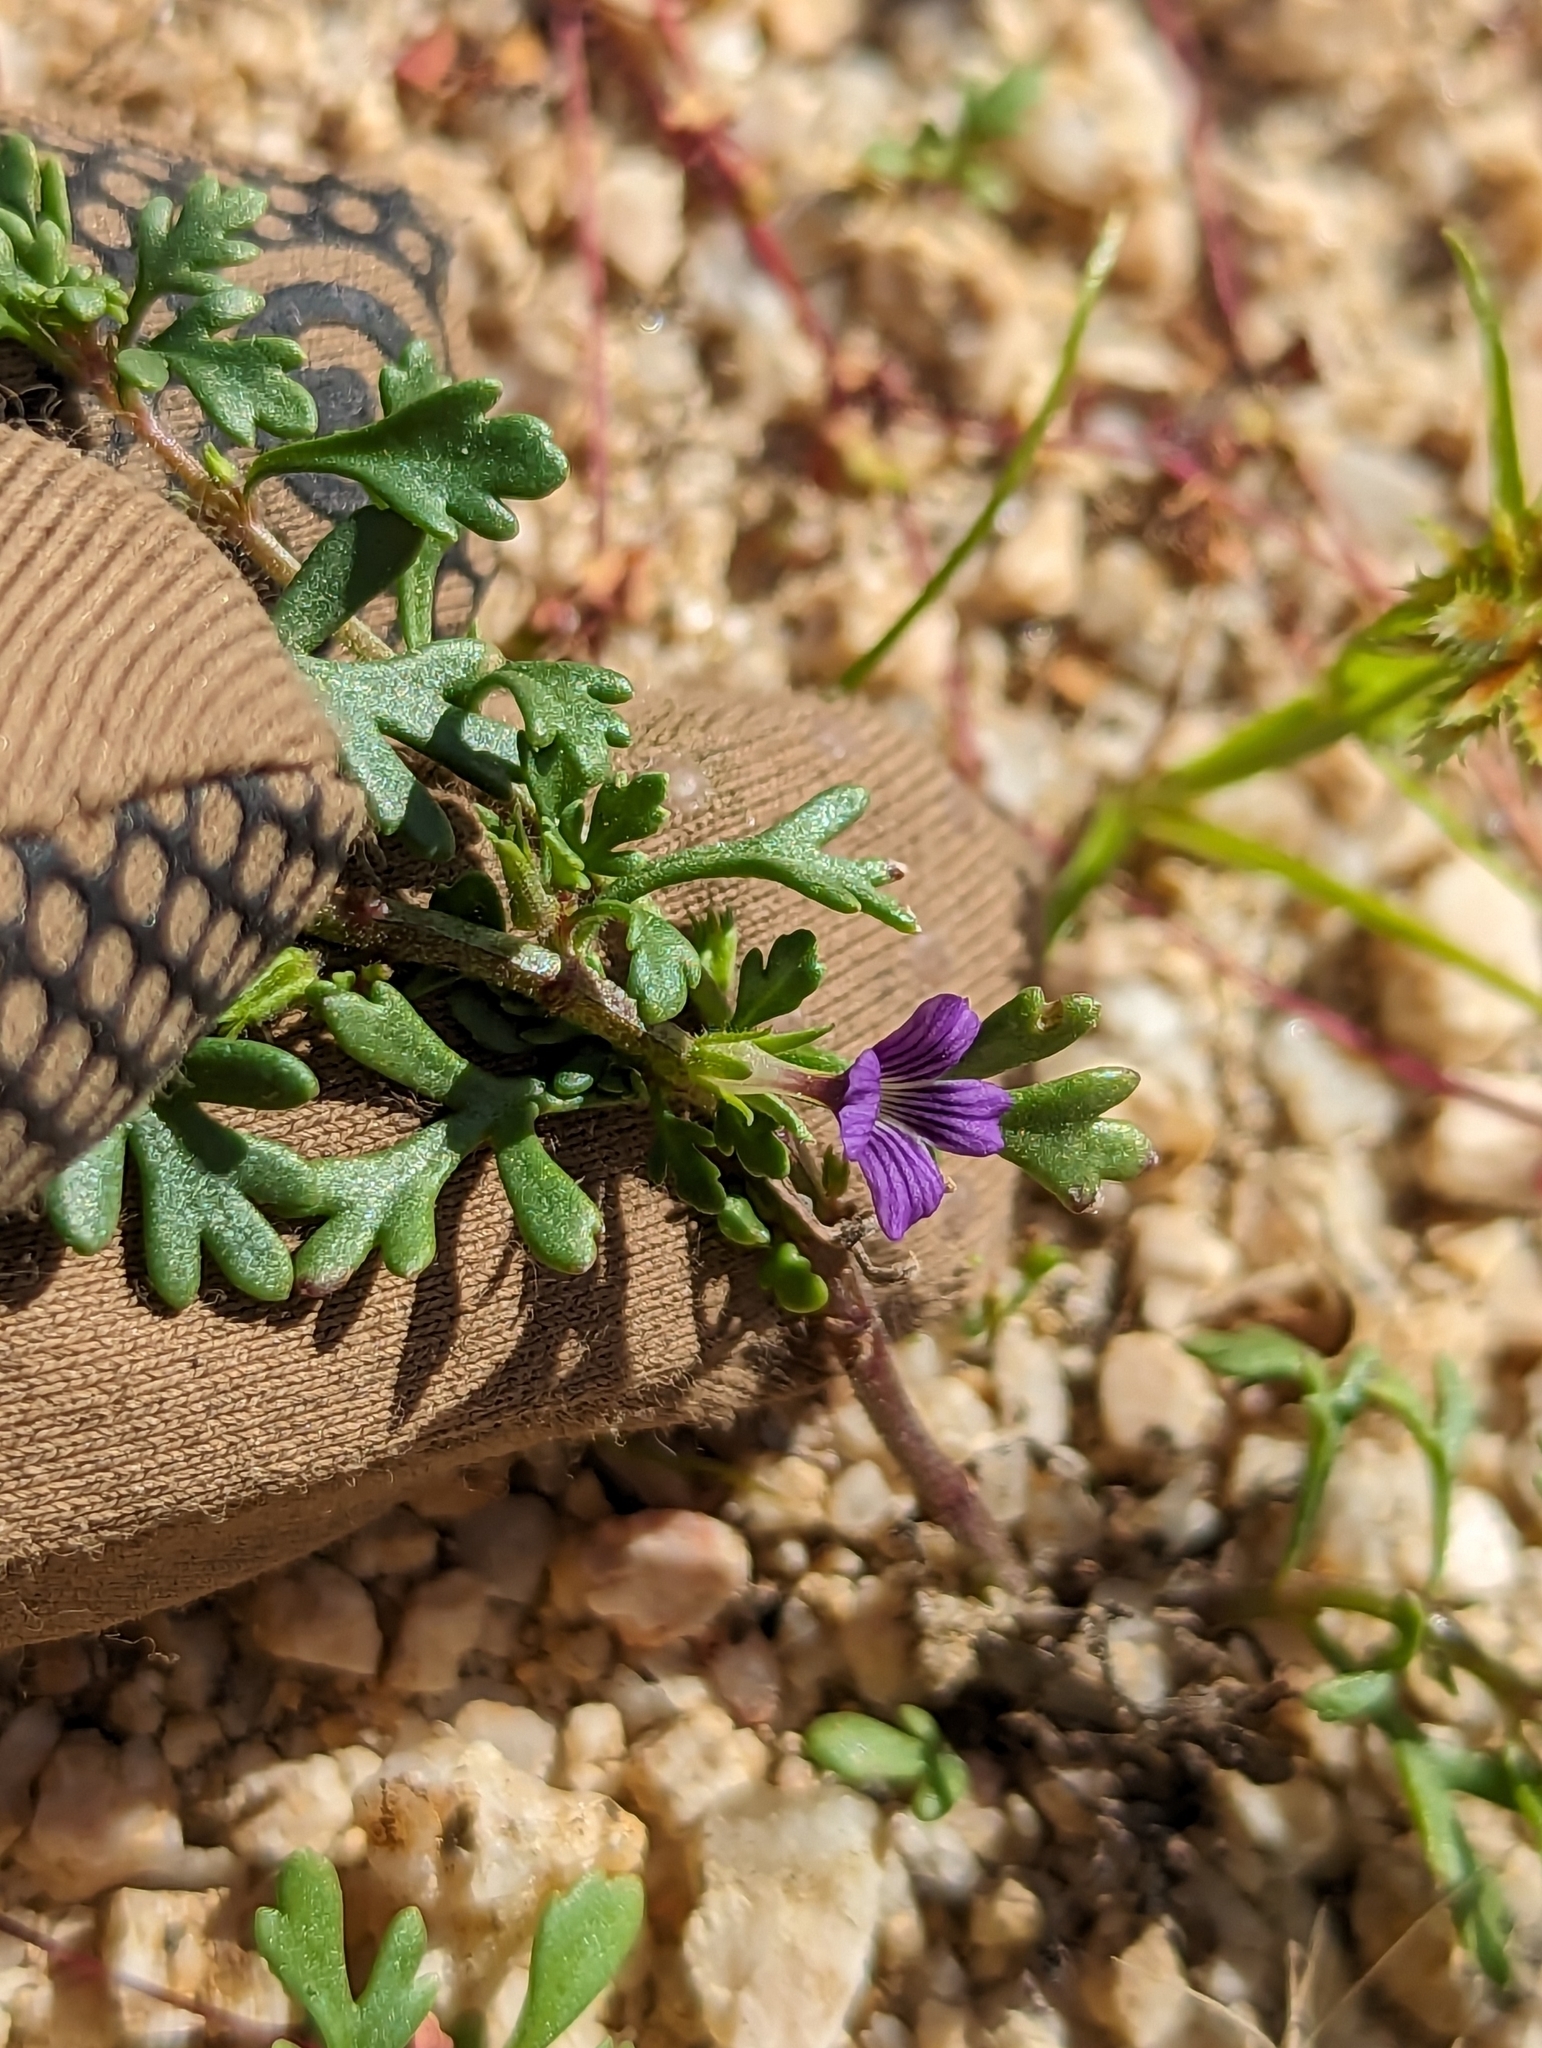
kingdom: Plantae
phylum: Tracheophyta
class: Magnoliopsida
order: Lamiales
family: Plantaginaceae
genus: Schistophragma
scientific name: Schistophragma polystachyum
